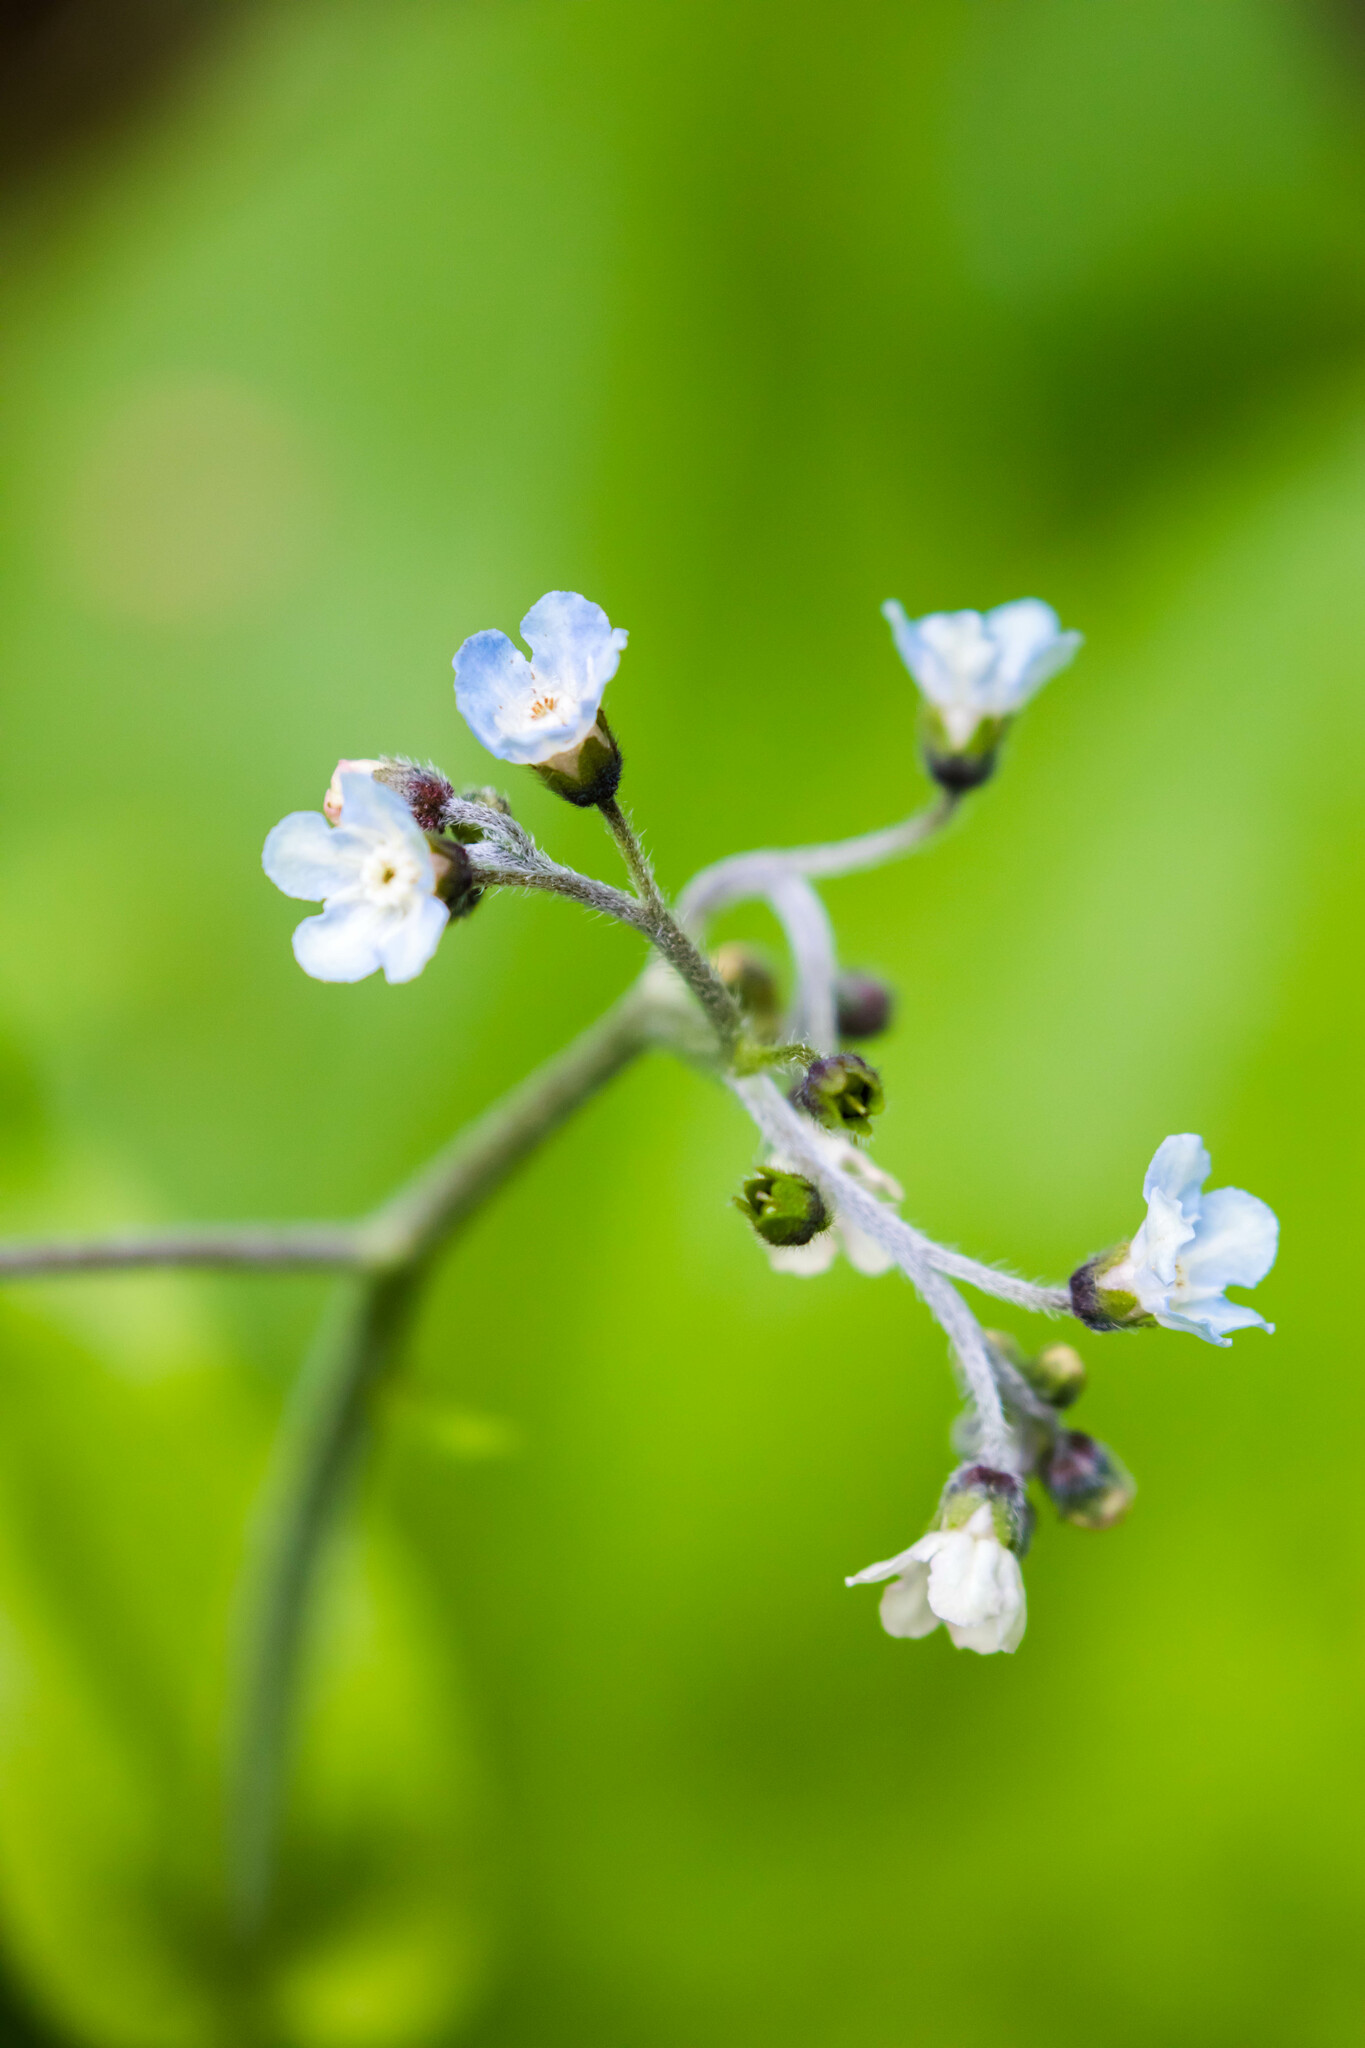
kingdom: Plantae
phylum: Tracheophyta
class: Magnoliopsida
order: Boraginales
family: Boraginaceae
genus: Andersonglossum
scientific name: Andersonglossum virginianum
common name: Wild comfrey
